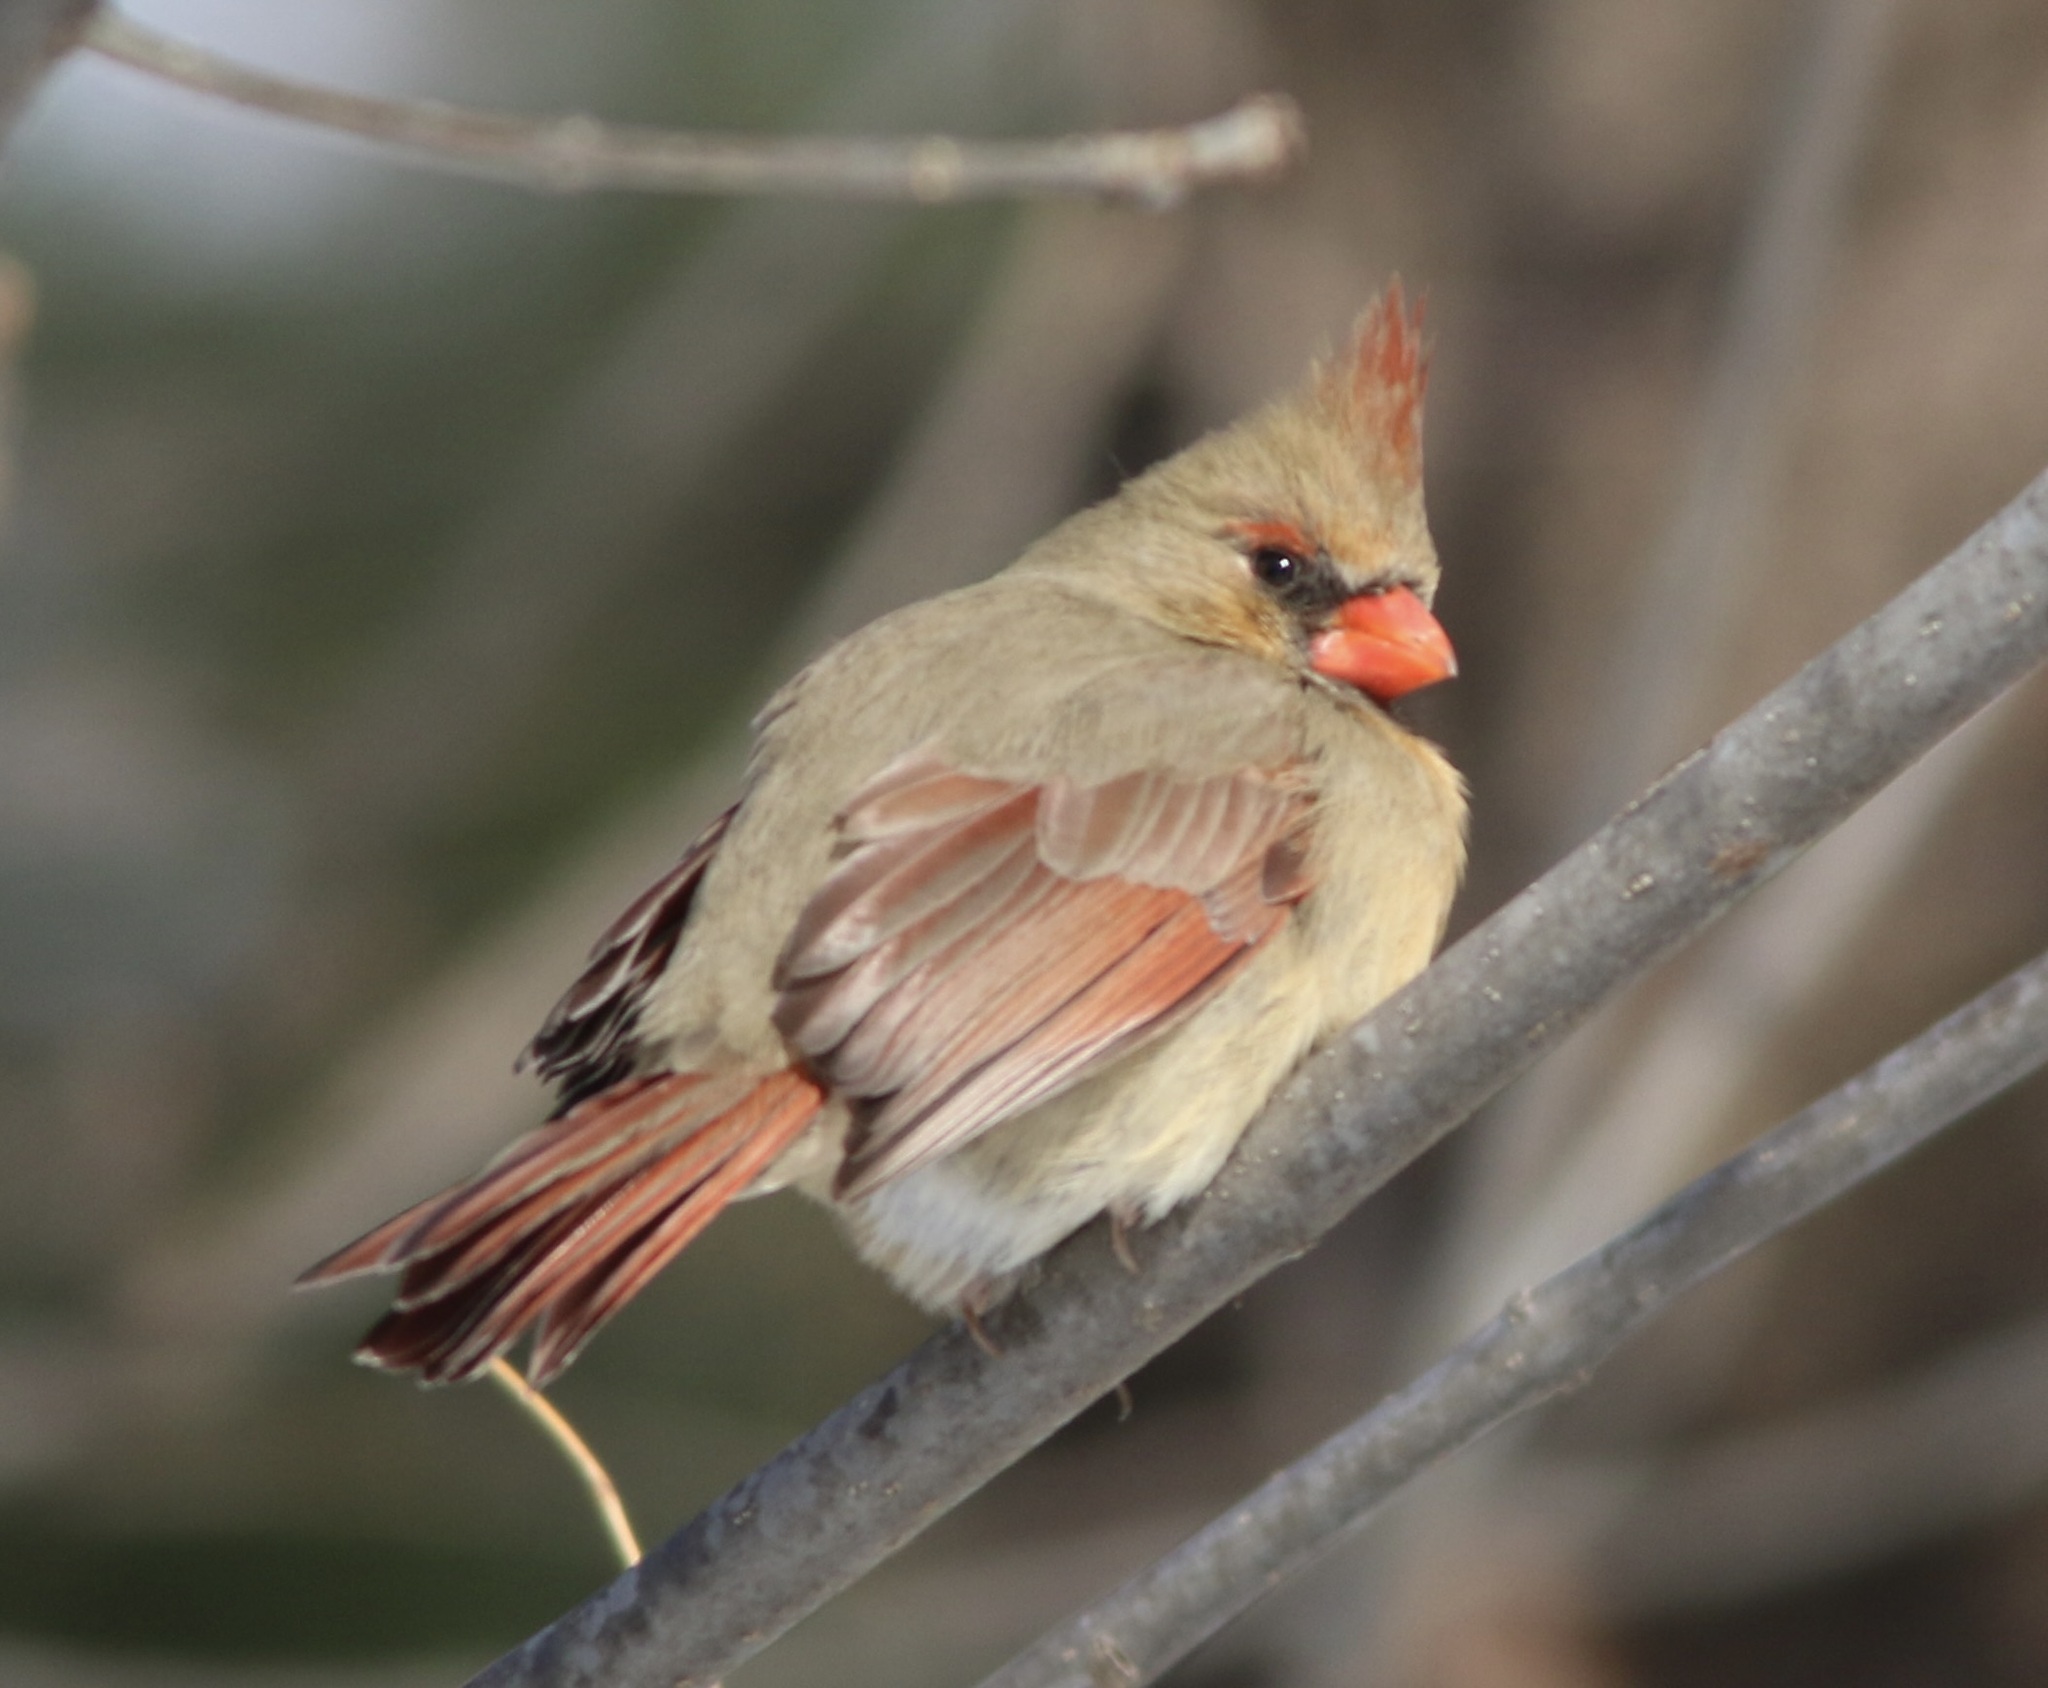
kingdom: Animalia
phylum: Chordata
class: Aves
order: Passeriformes
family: Cardinalidae
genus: Cardinalis
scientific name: Cardinalis cardinalis
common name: Northern cardinal
